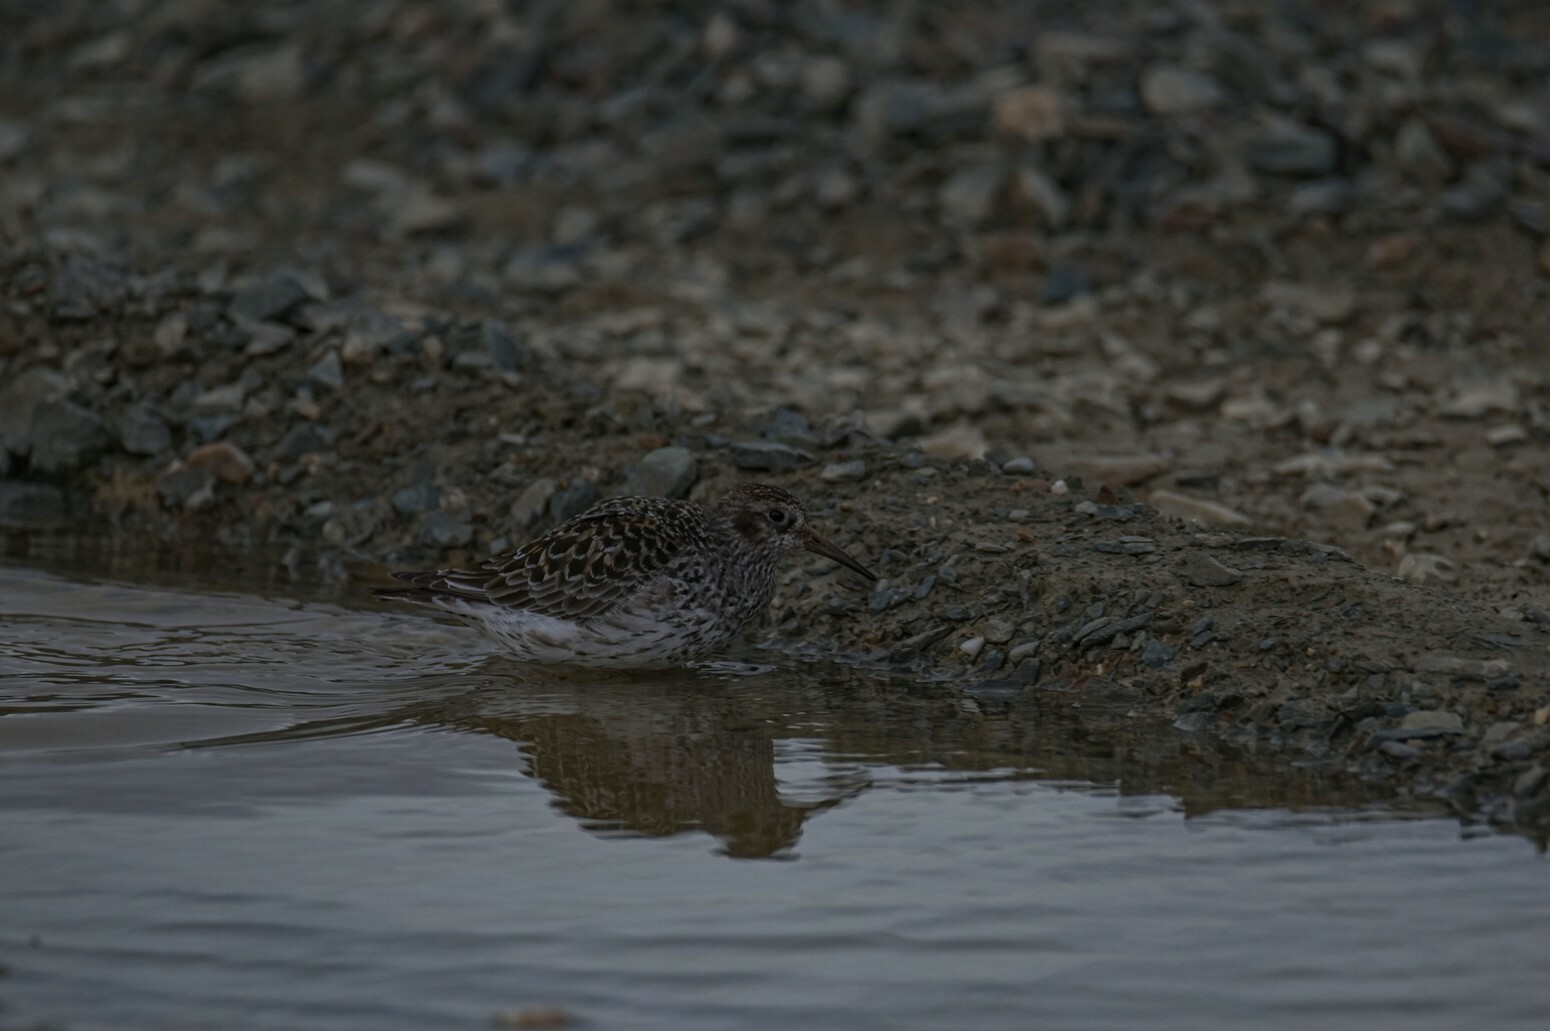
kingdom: Animalia
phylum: Chordata
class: Aves
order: Charadriiformes
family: Scolopacidae
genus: Calidris
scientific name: Calidris maritima
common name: Purple sandpiper
